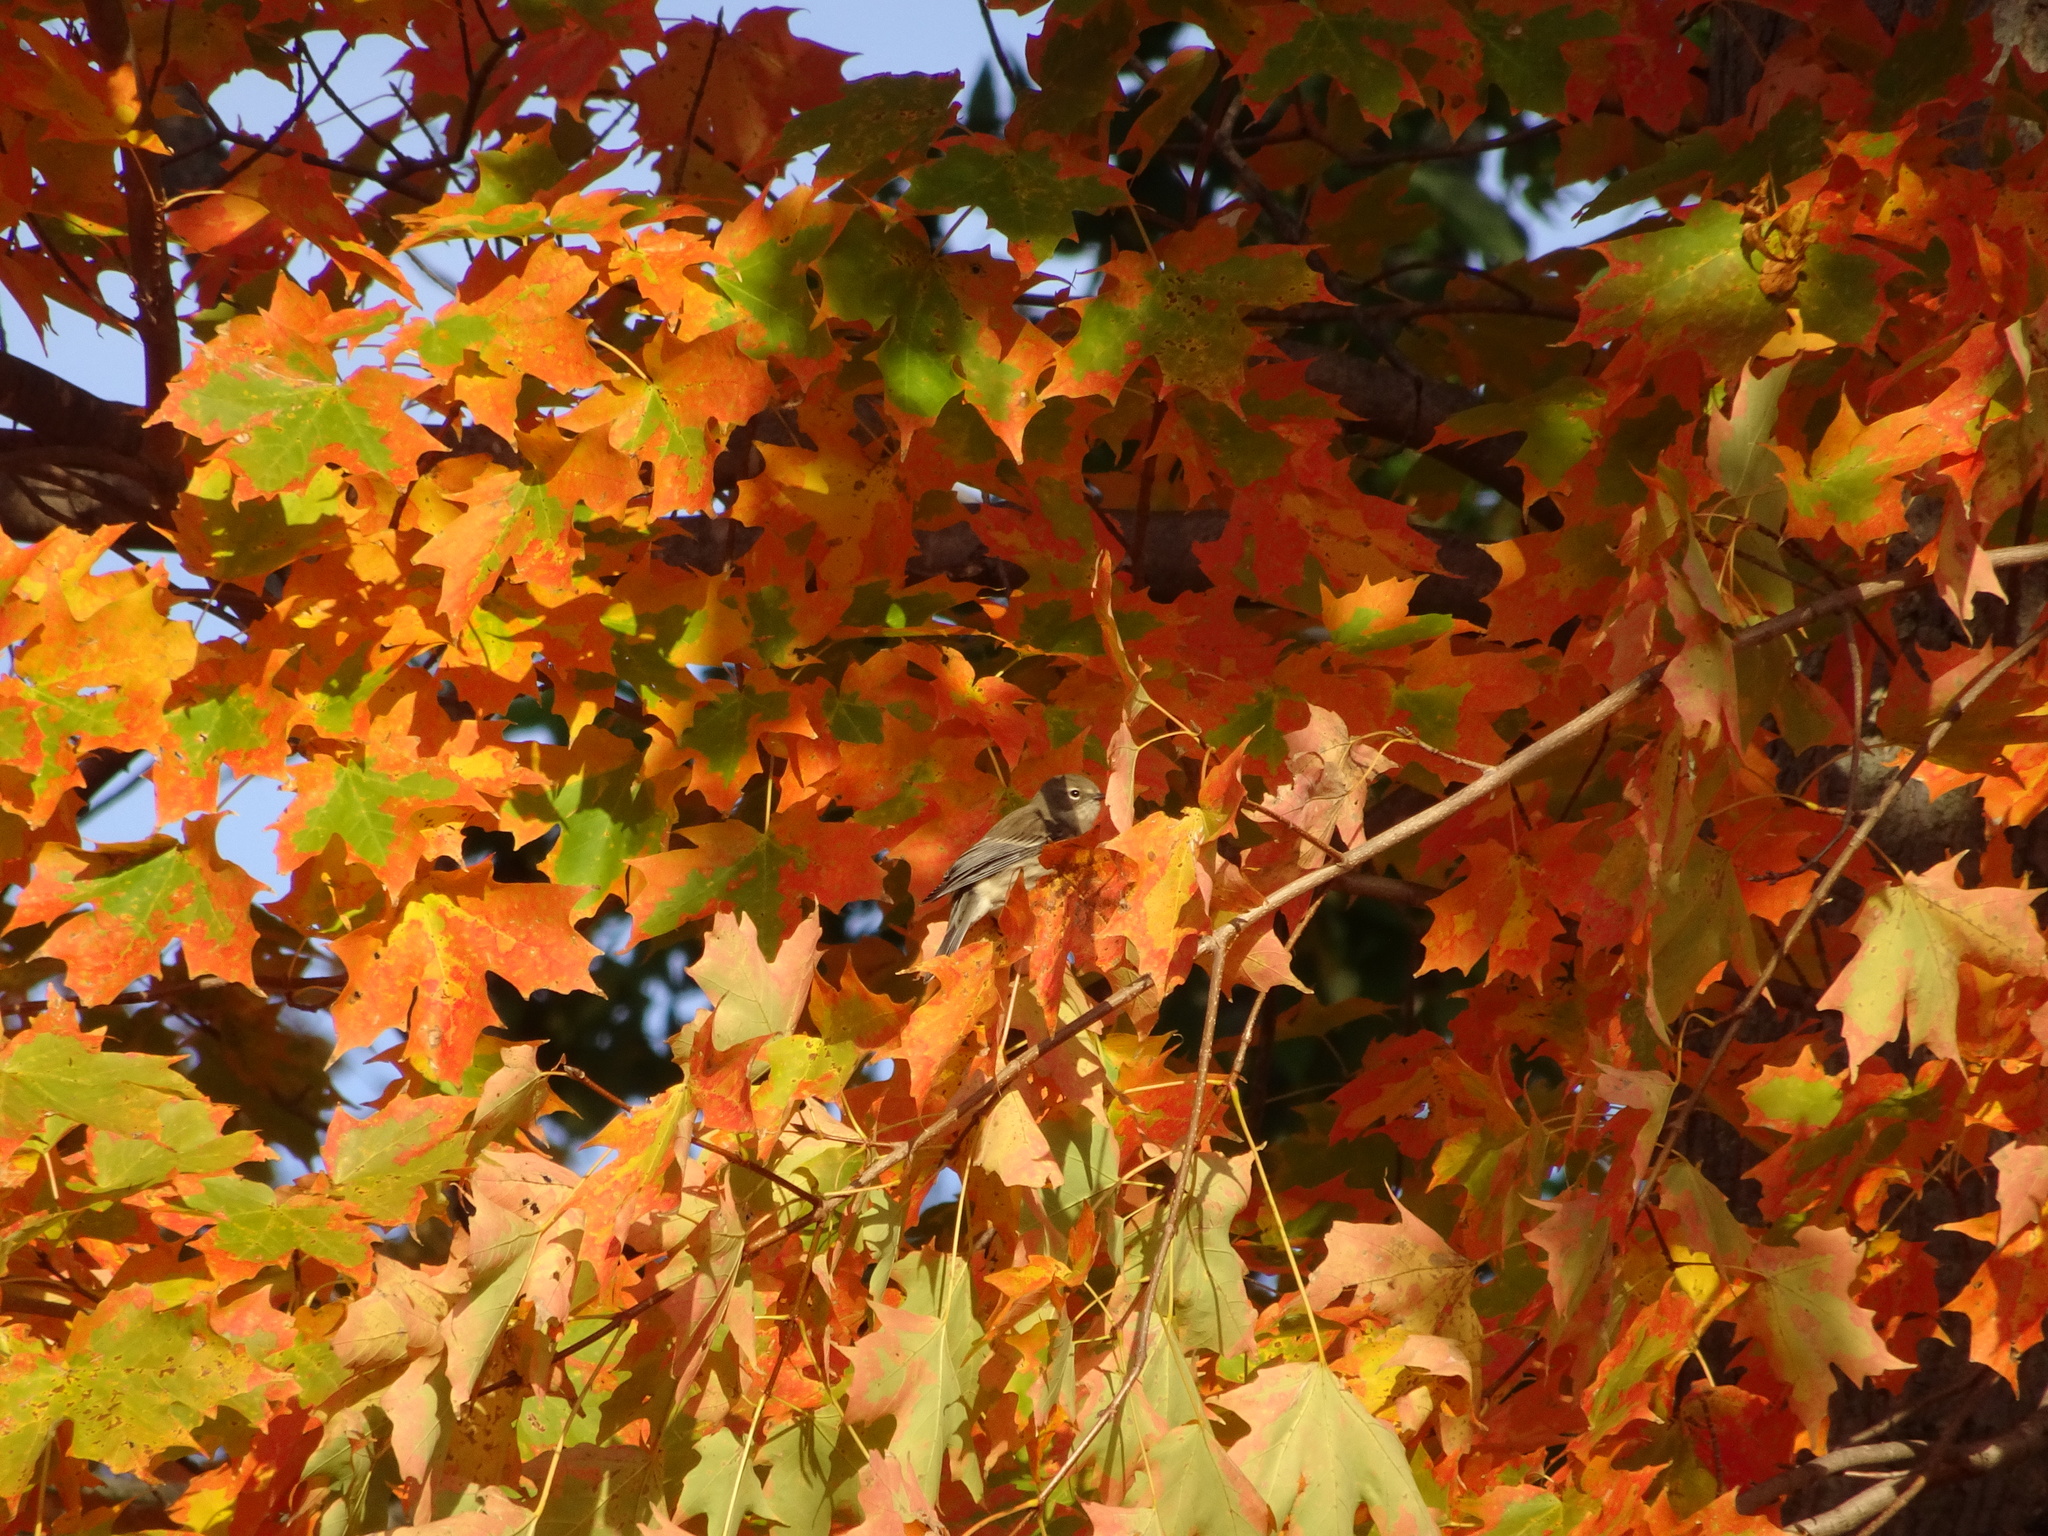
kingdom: Animalia
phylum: Chordata
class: Aves
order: Passeriformes
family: Parulidae
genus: Setophaga
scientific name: Setophaga coronata
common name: Myrtle warbler
